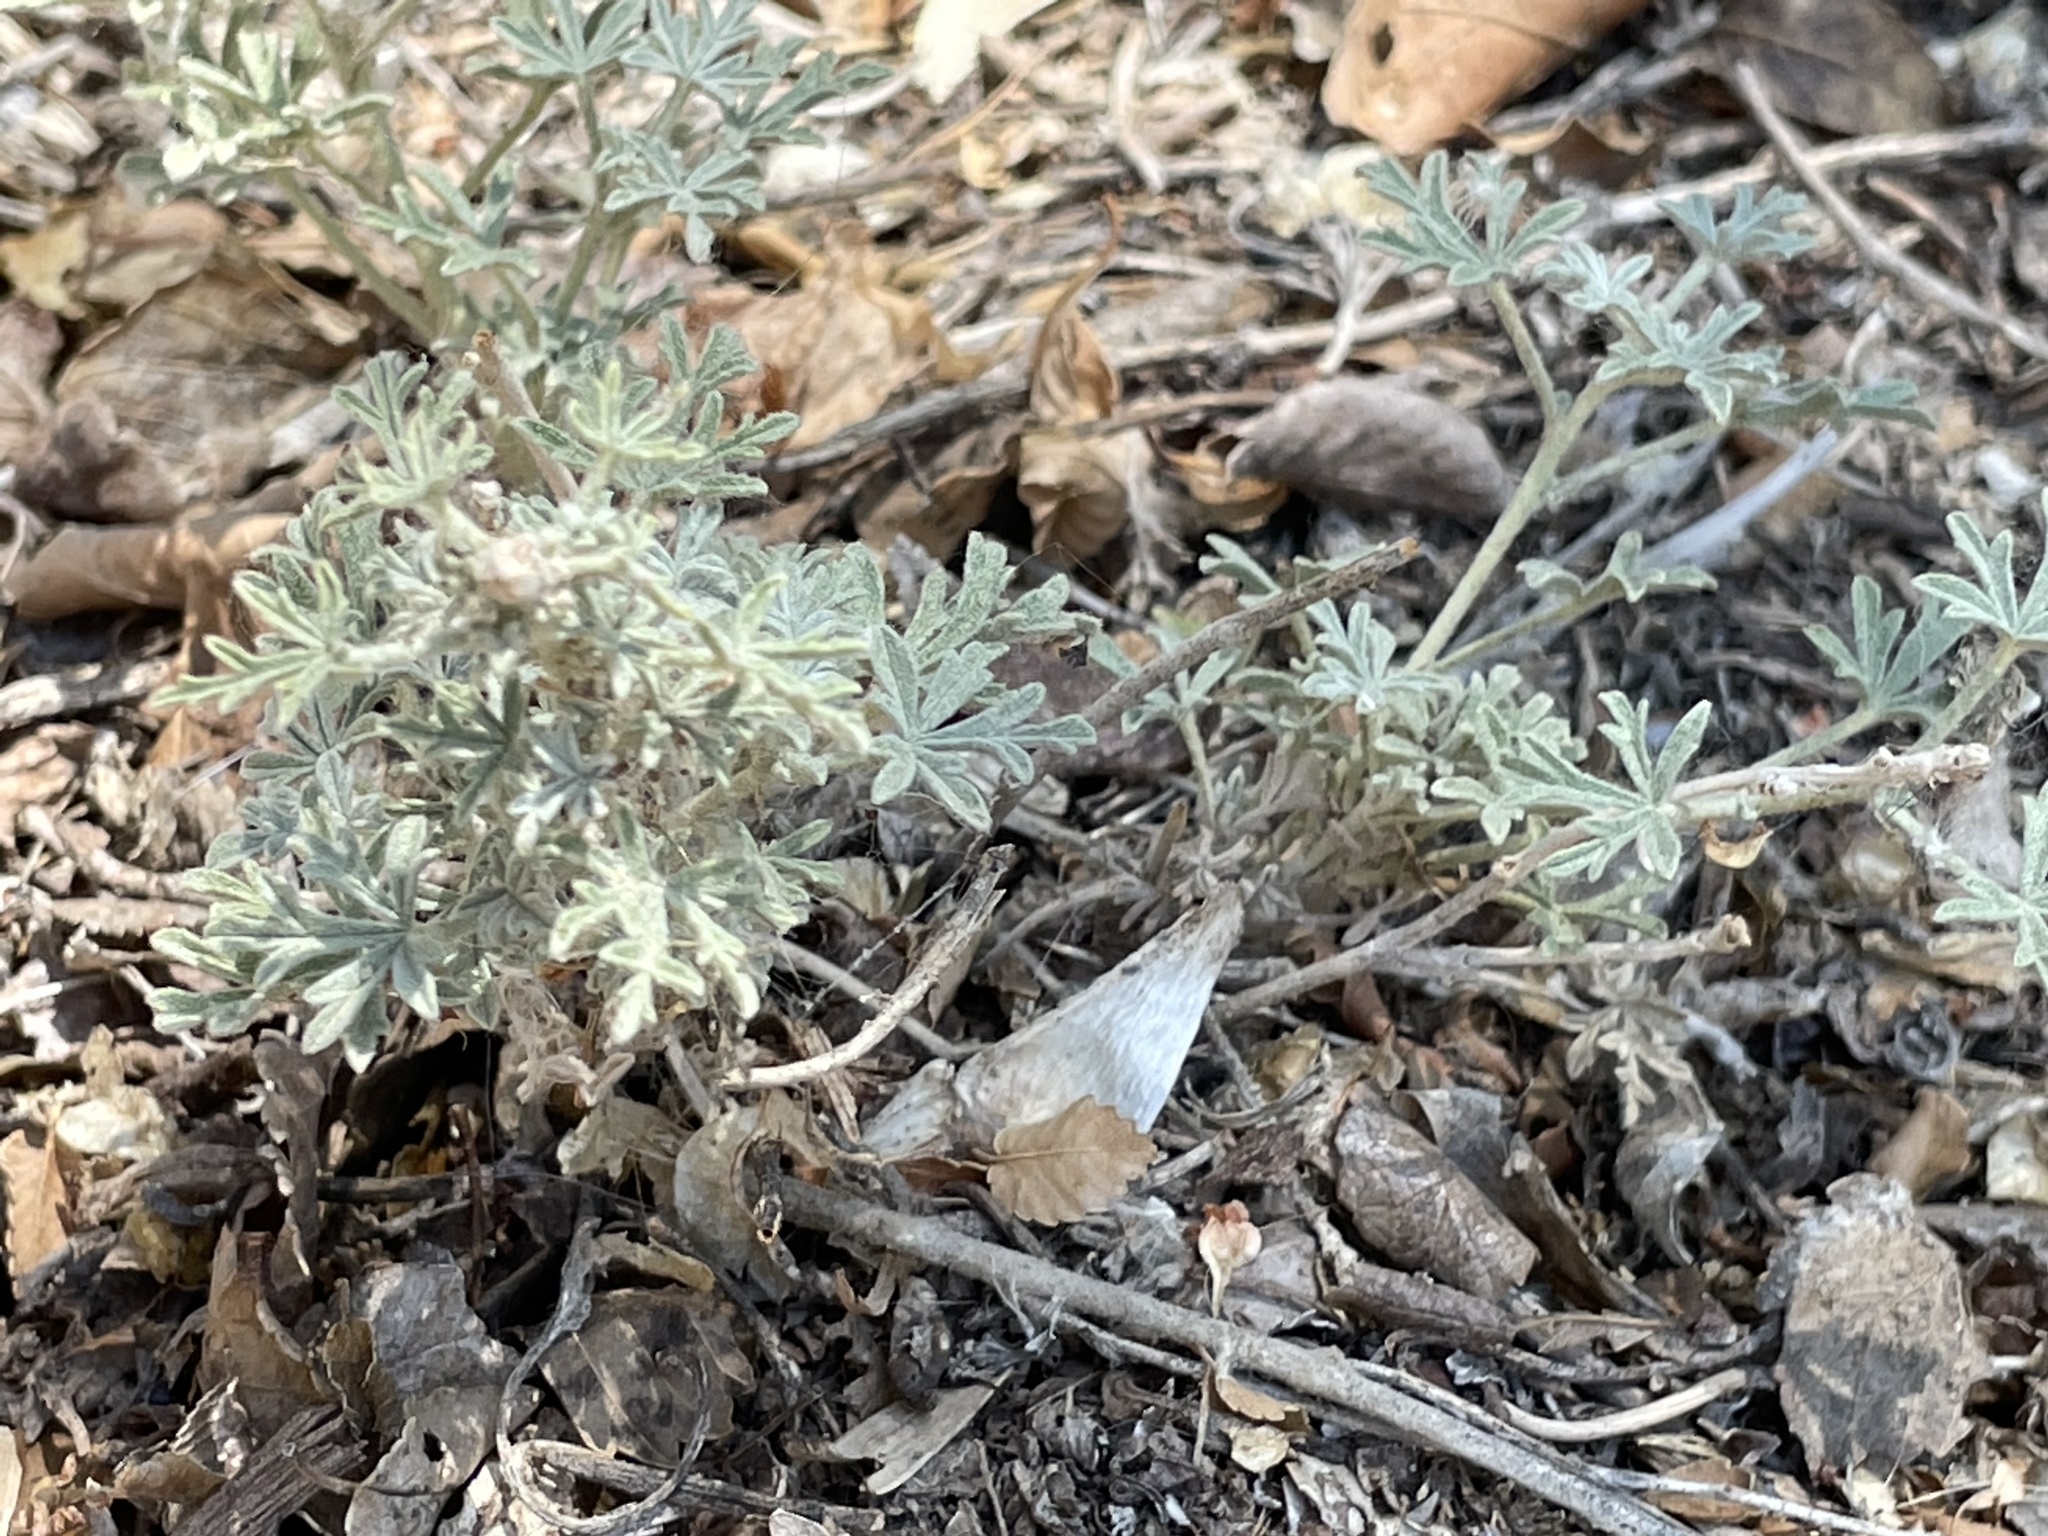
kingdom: Plantae
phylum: Tracheophyta
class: Magnoliopsida
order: Malvales
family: Malvaceae
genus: Sphaeralcea
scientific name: Sphaeralcea coccinea
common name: Moss-rose
